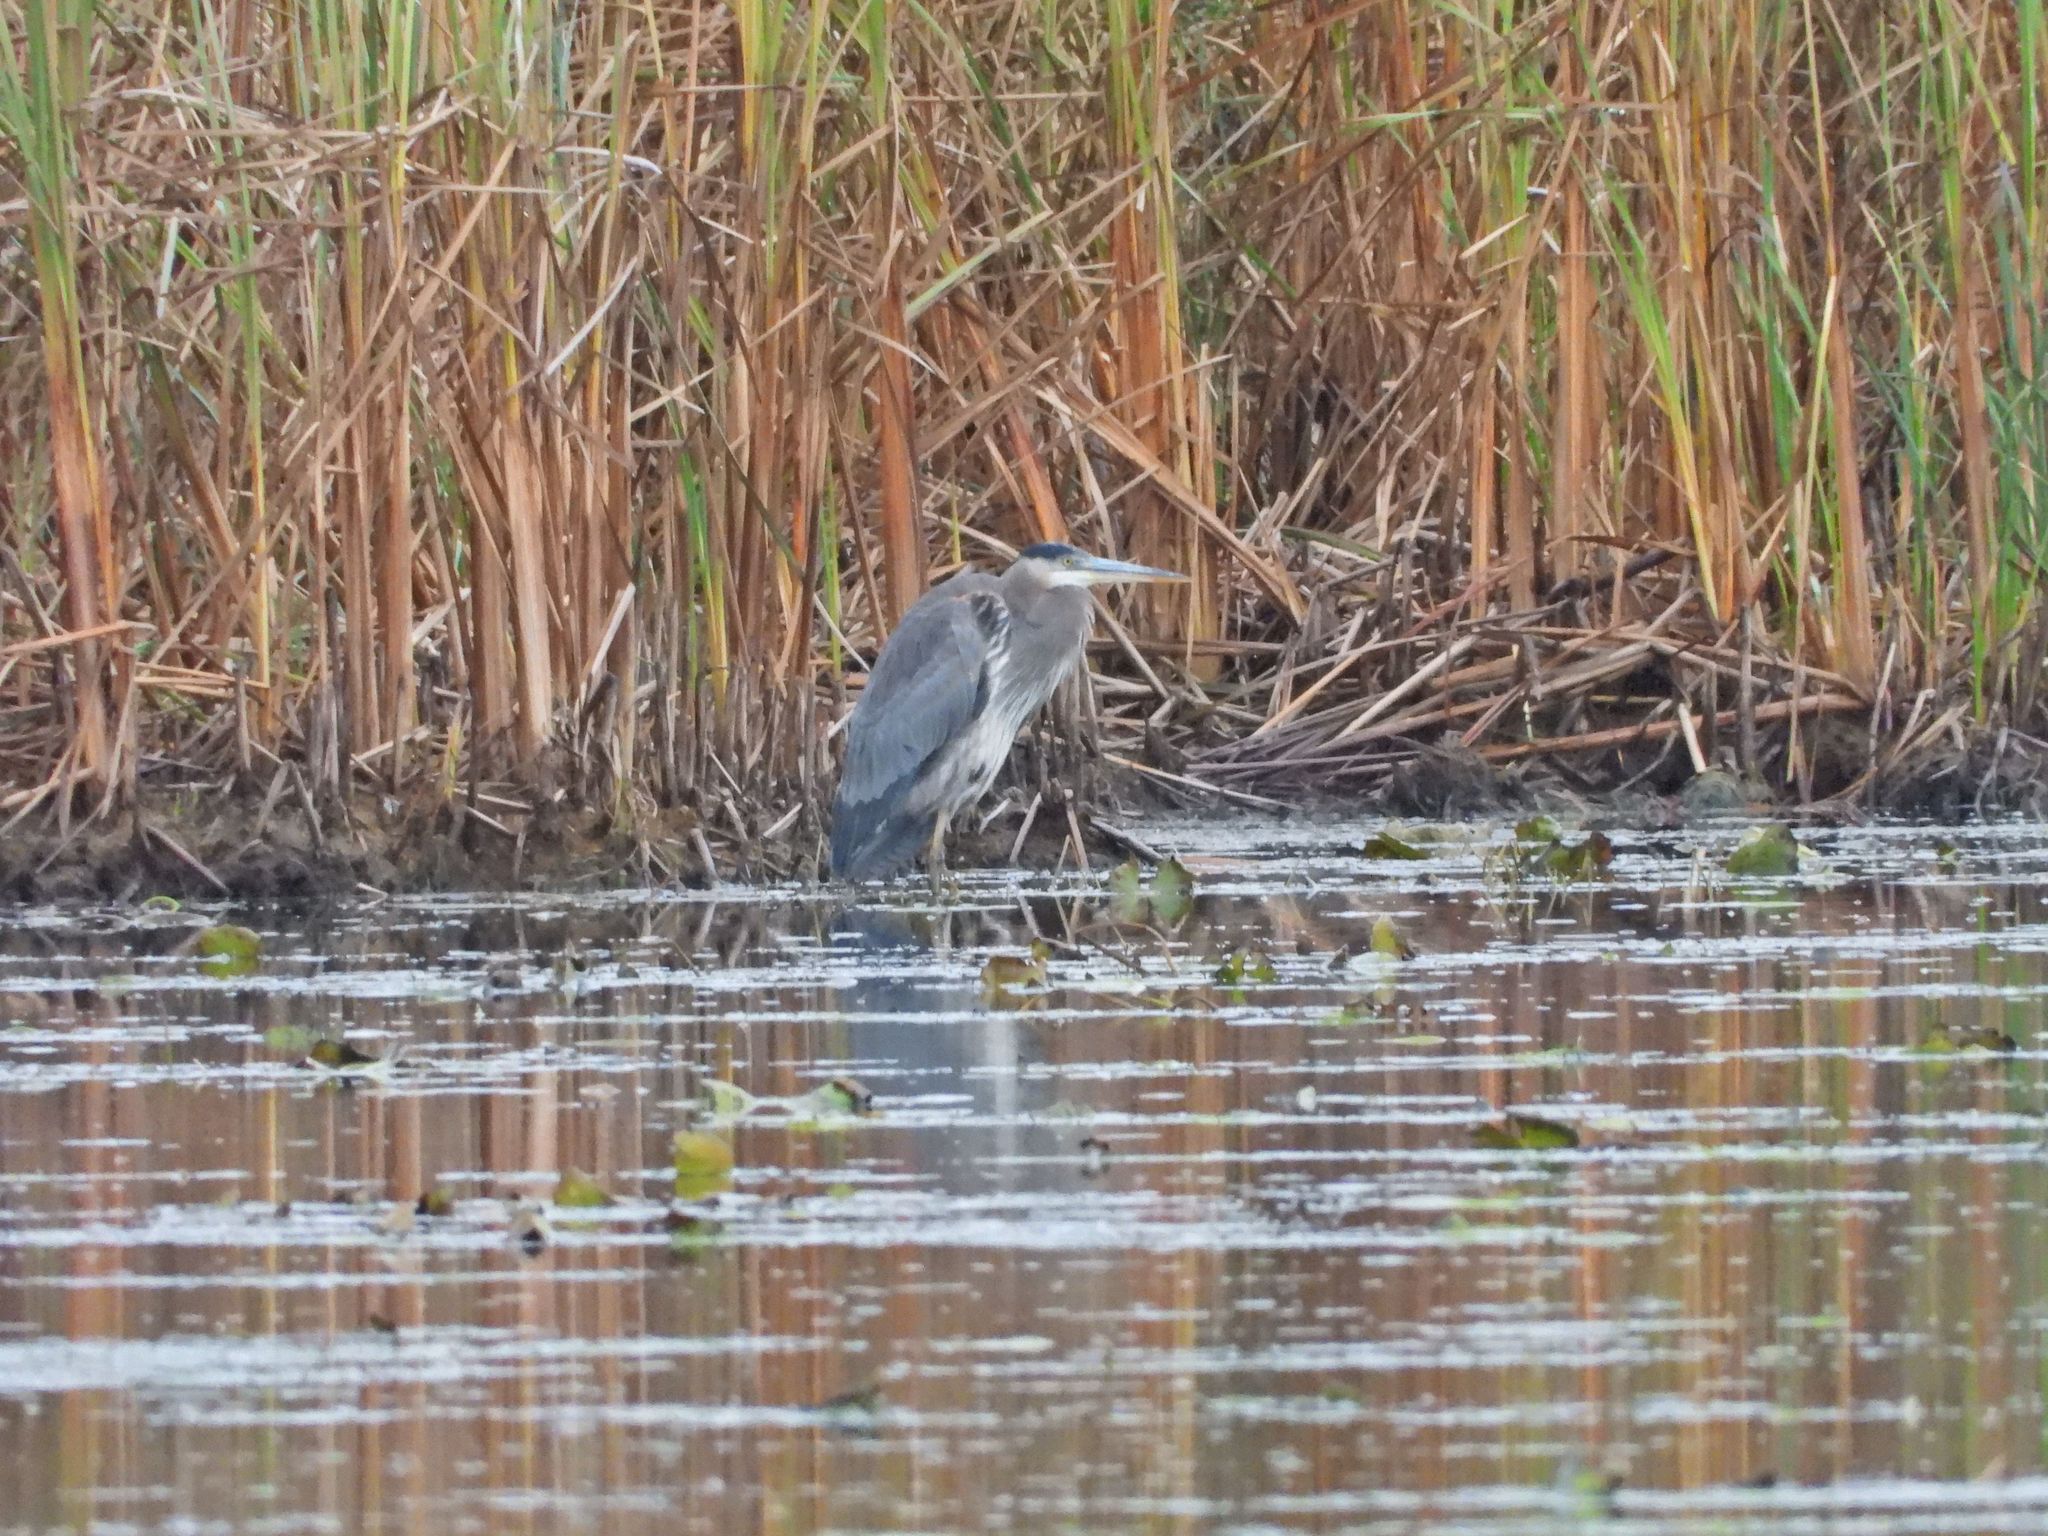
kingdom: Animalia
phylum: Chordata
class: Aves
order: Pelecaniformes
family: Ardeidae
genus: Ardea
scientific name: Ardea herodias
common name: Great blue heron
